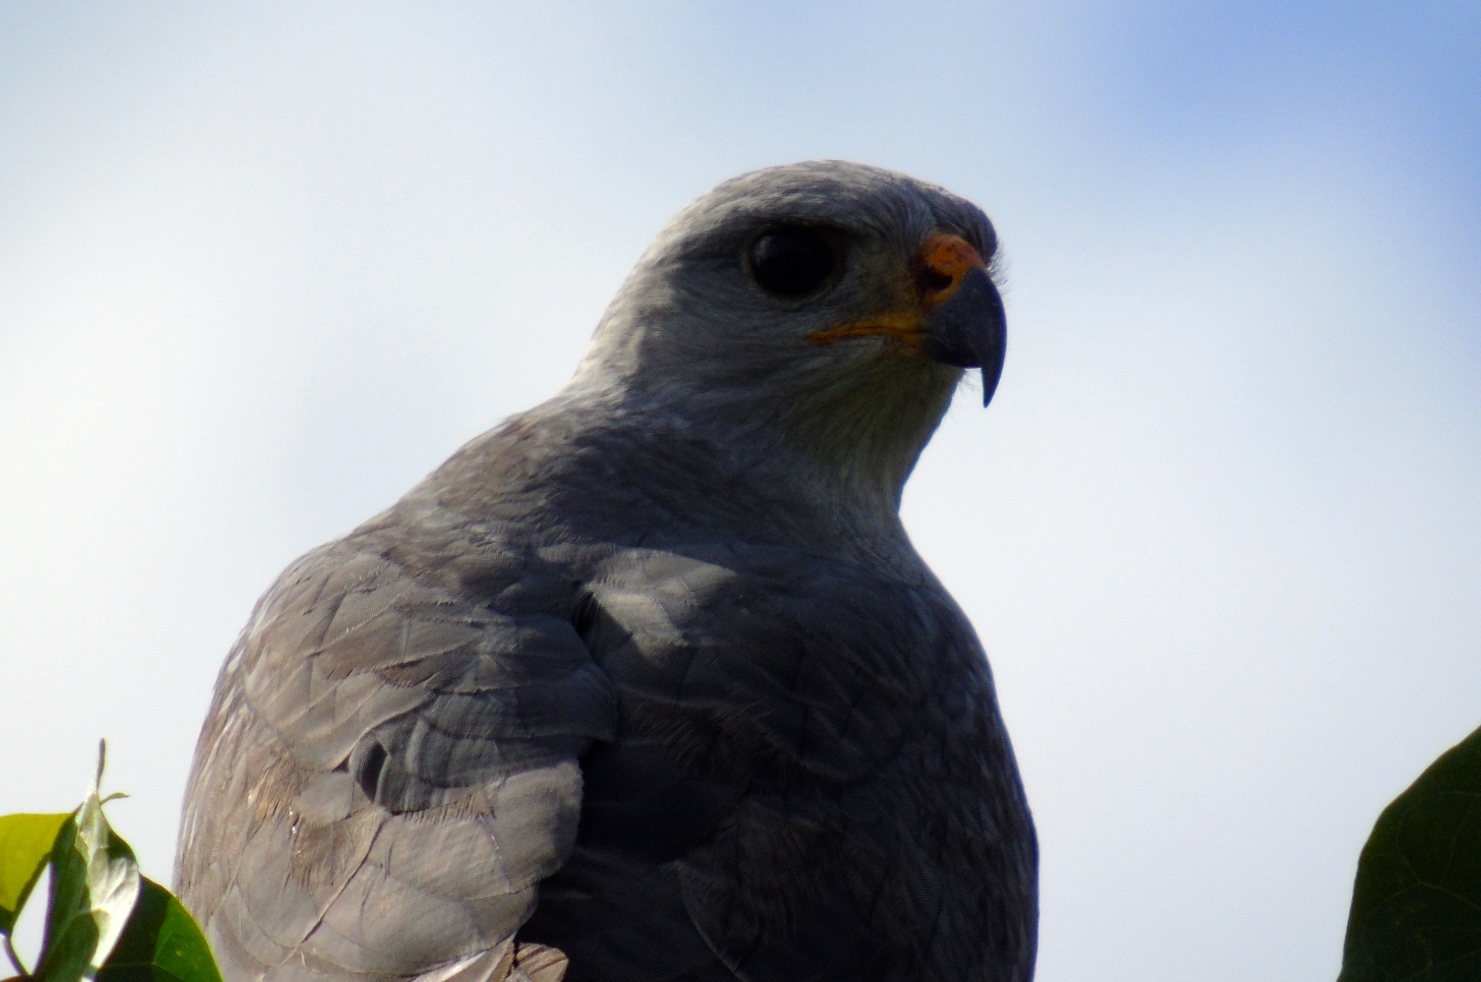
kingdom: Animalia
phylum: Chordata
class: Aves
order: Accipitriformes
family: Accipitridae
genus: Buteo
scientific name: Buteo nitidus
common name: Grey-lined hawk
